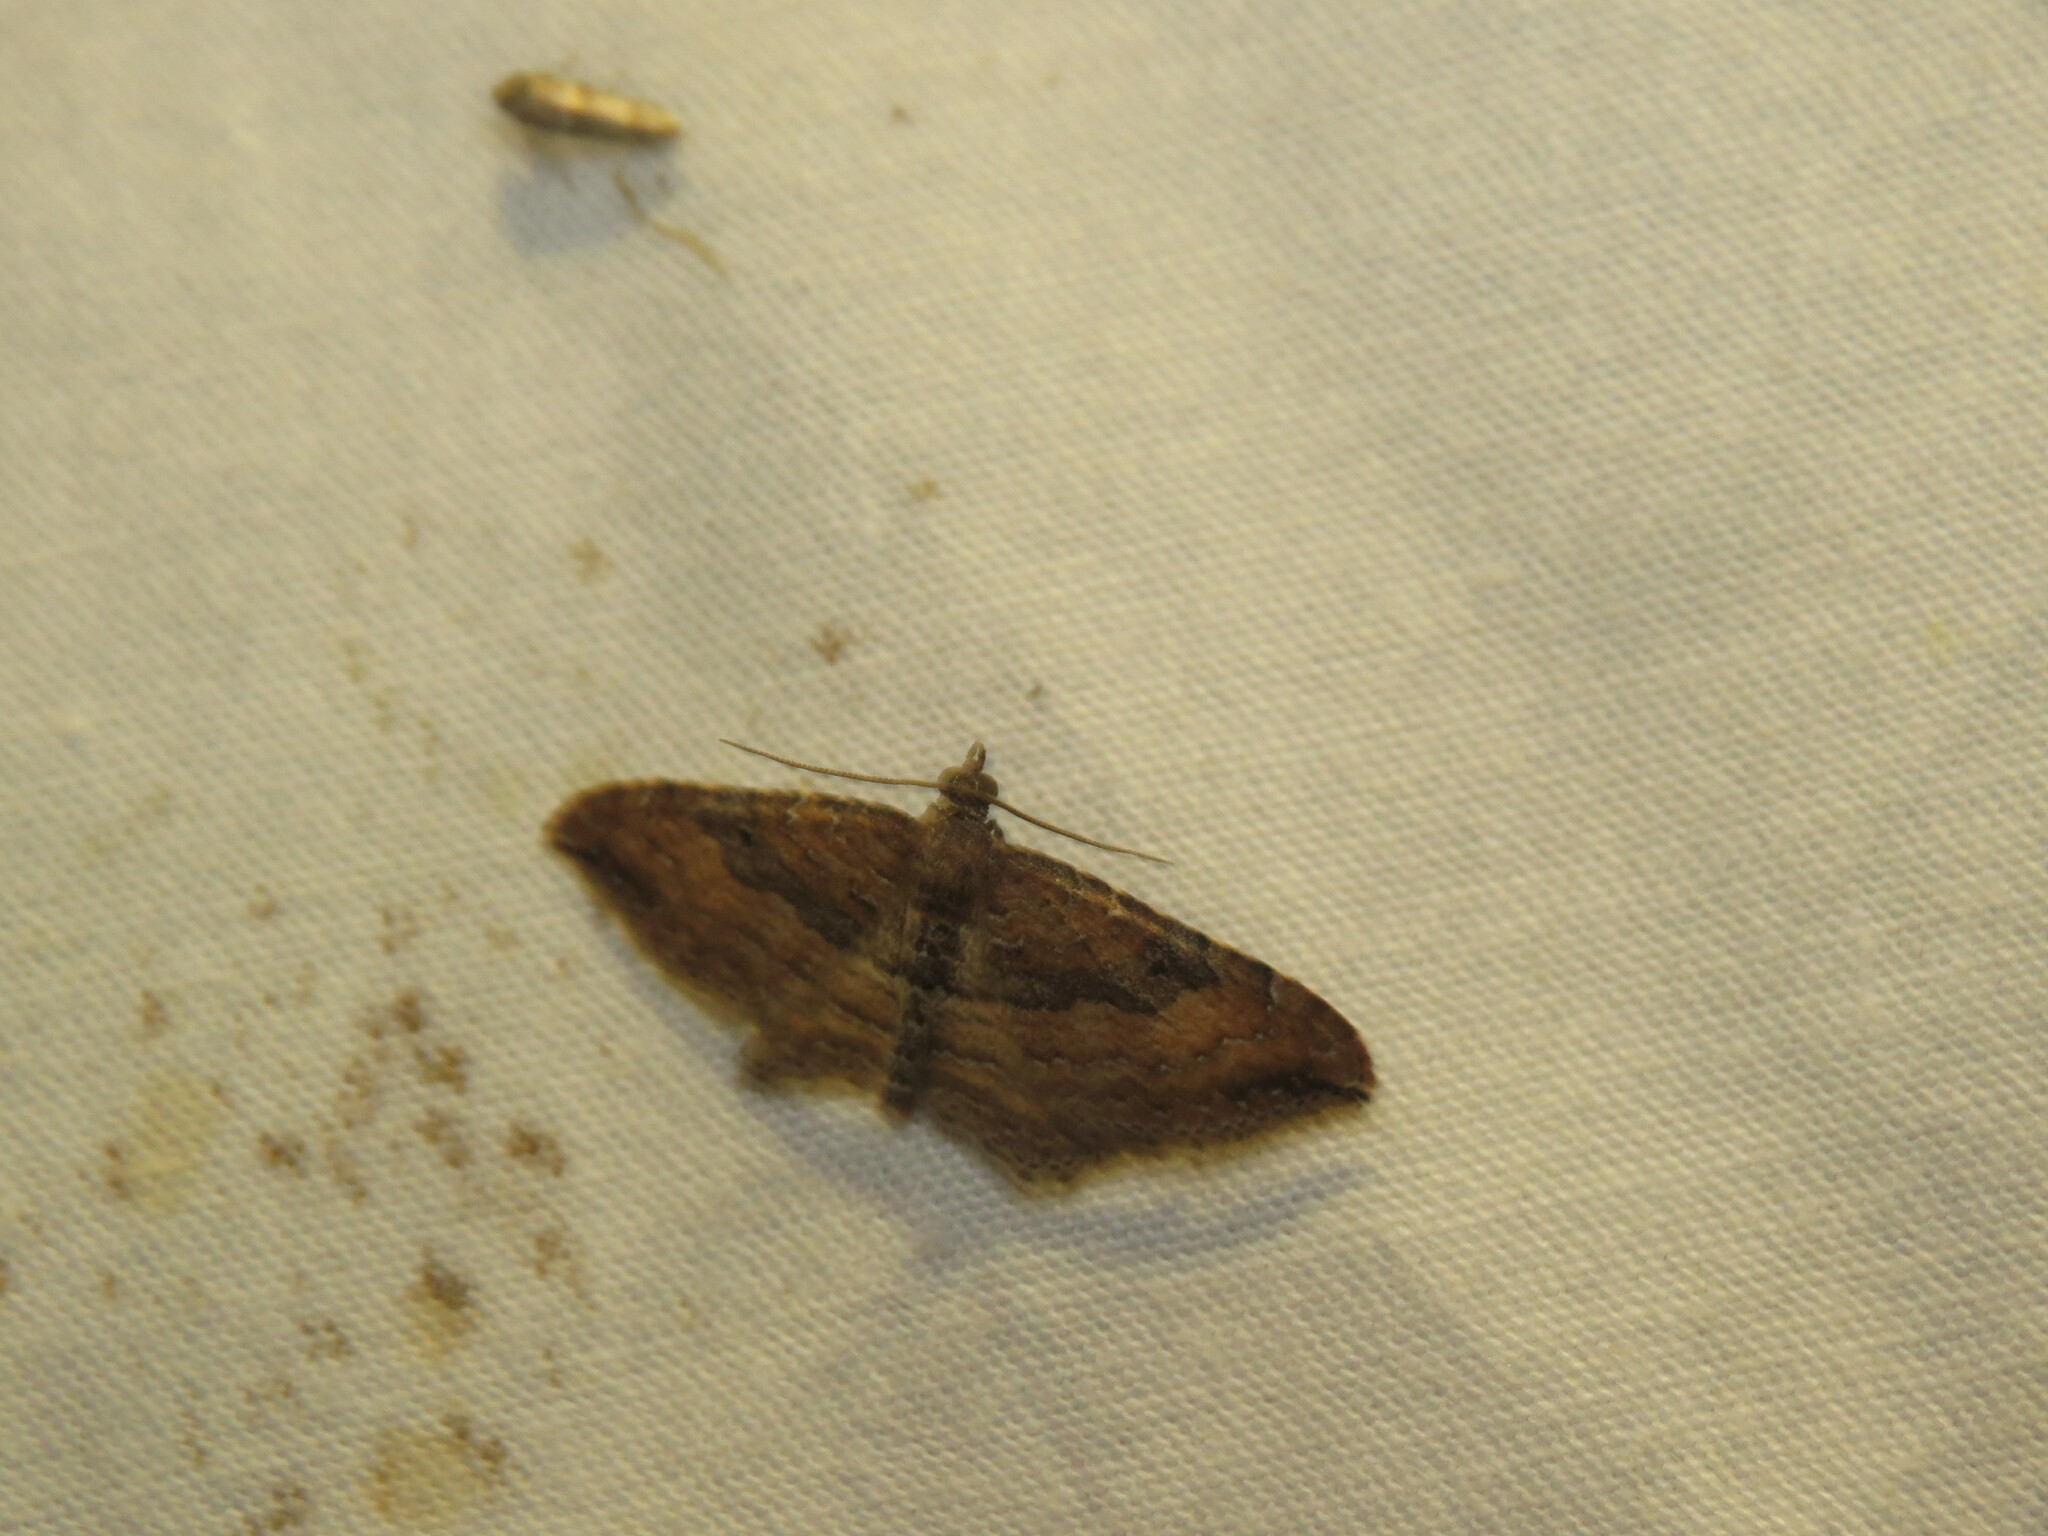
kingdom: Animalia
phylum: Arthropoda
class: Insecta
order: Lepidoptera
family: Geometridae
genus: Orthonama
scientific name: Orthonama obstipata
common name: The gem
